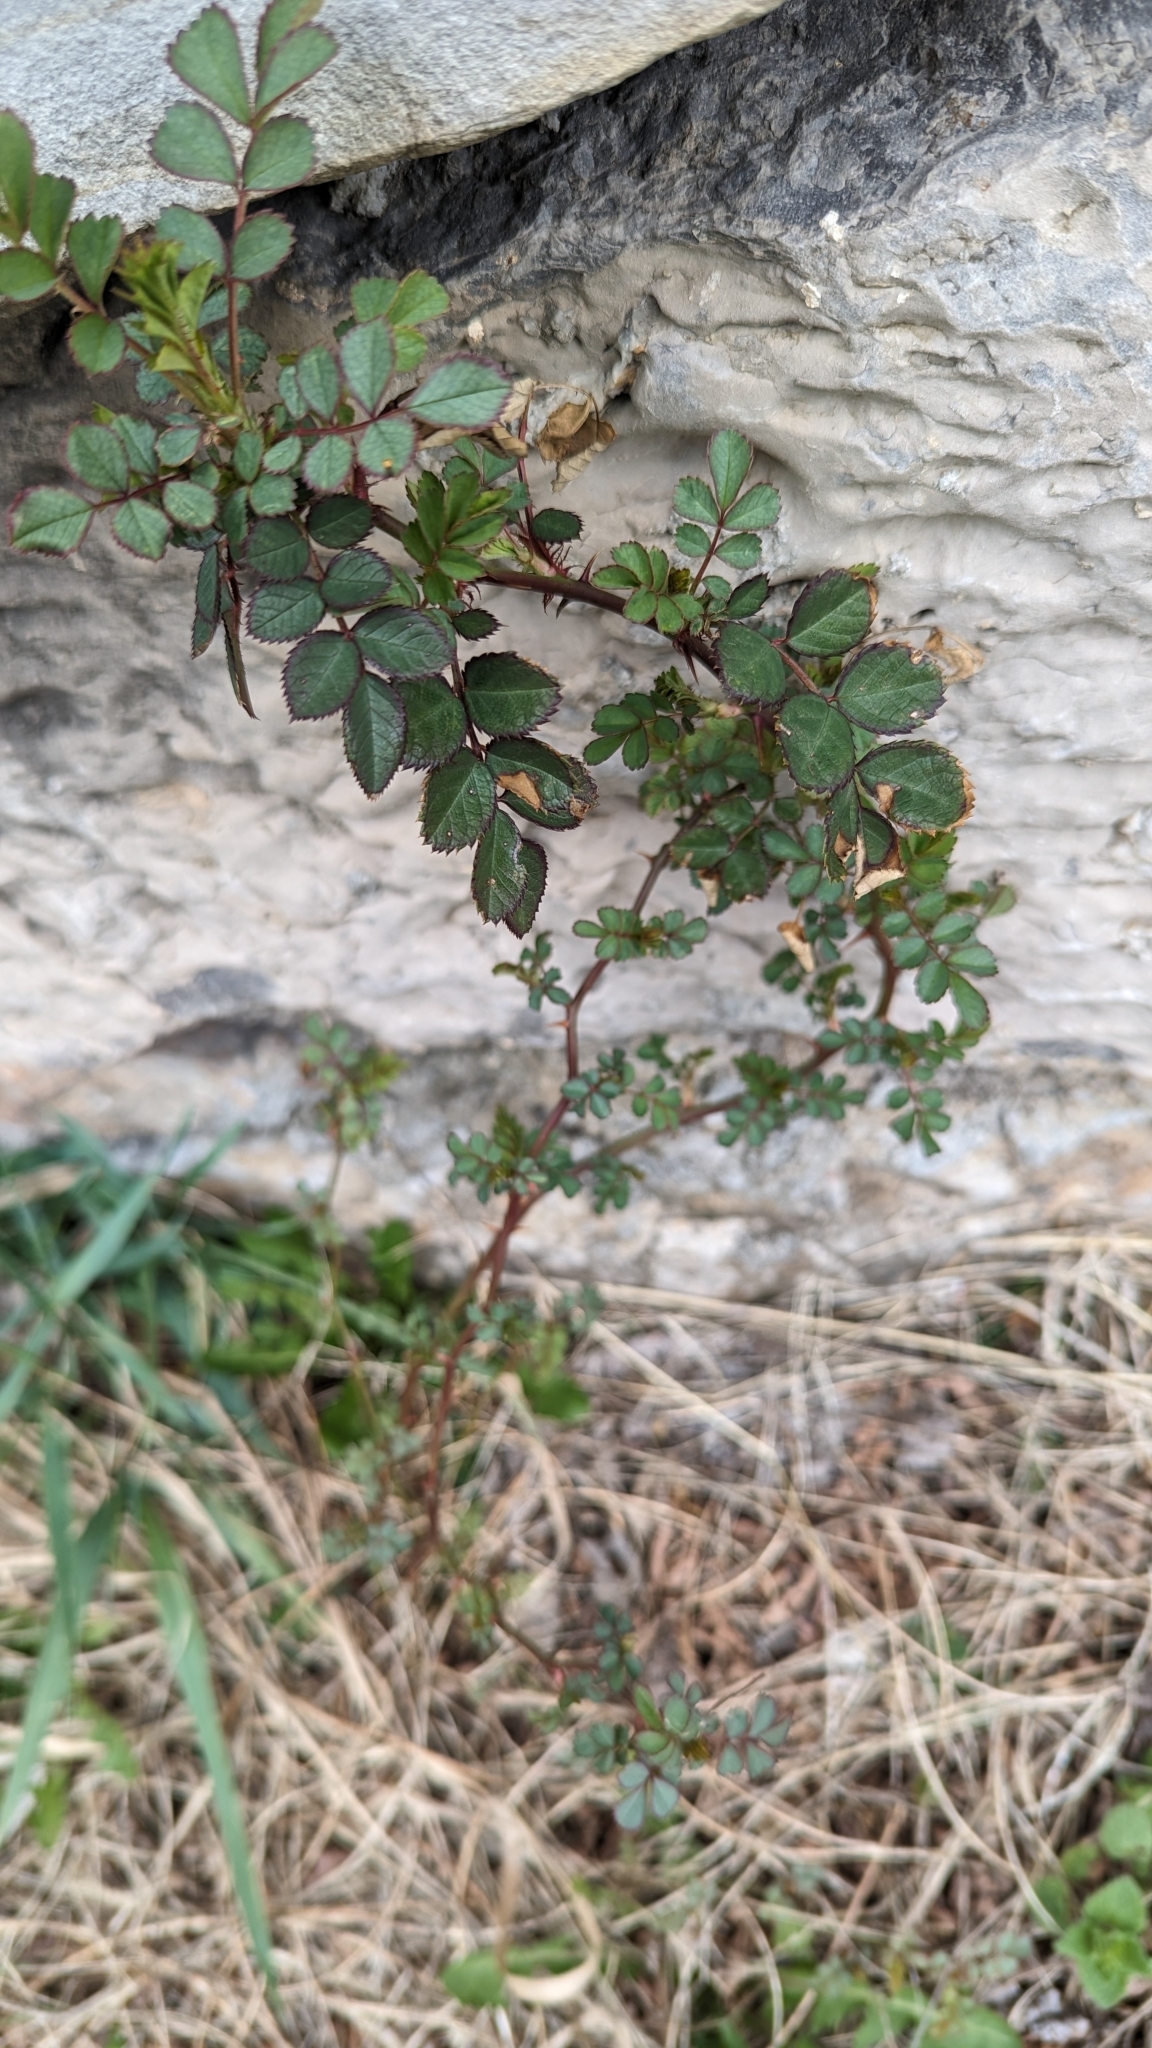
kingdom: Plantae
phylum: Tracheophyta
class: Magnoliopsida
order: Rosales
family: Rosaceae
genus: Rosa
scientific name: Rosa multiflora
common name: Multiflora rose
